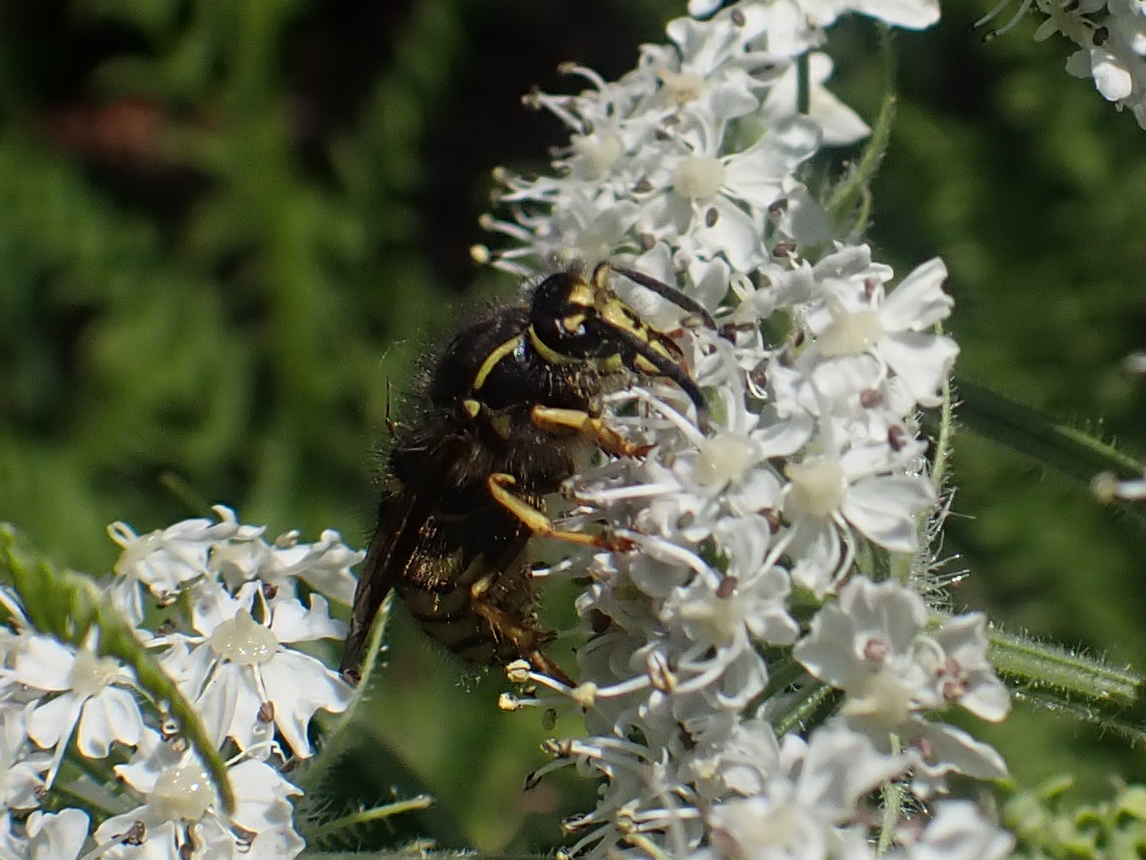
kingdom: Animalia
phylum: Arthropoda
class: Insecta
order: Hymenoptera
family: Vespidae
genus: Dolichovespula
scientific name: Dolichovespula arenaria
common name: Aerial yellowjacket
